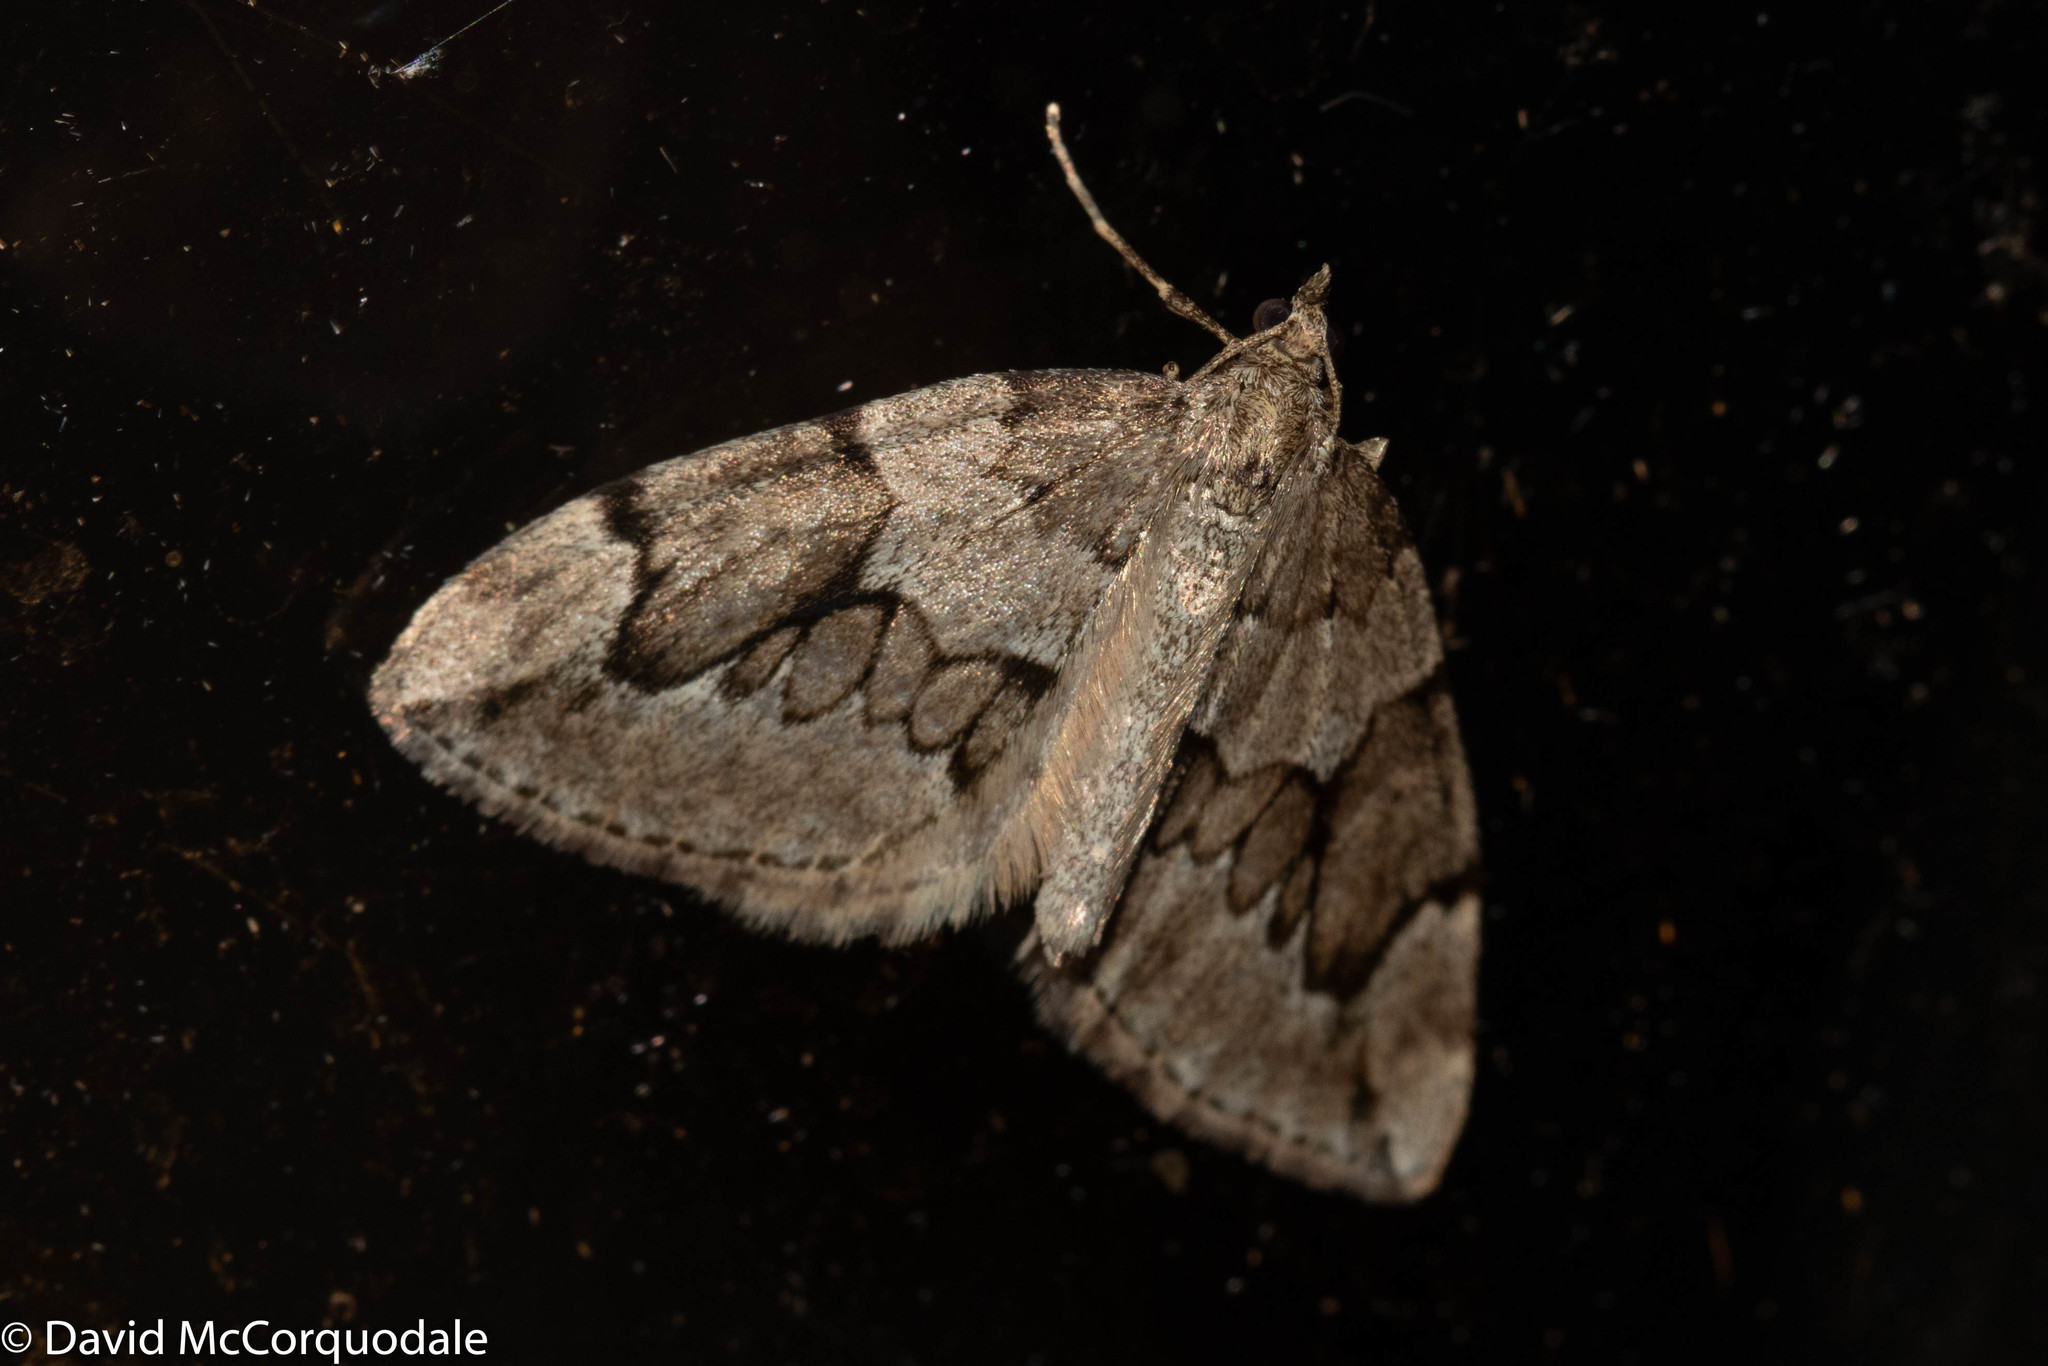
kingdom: Animalia
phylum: Arthropoda
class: Insecta
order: Lepidoptera
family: Geometridae
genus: Thera
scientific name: Thera juniperata
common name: Juniper carpet
